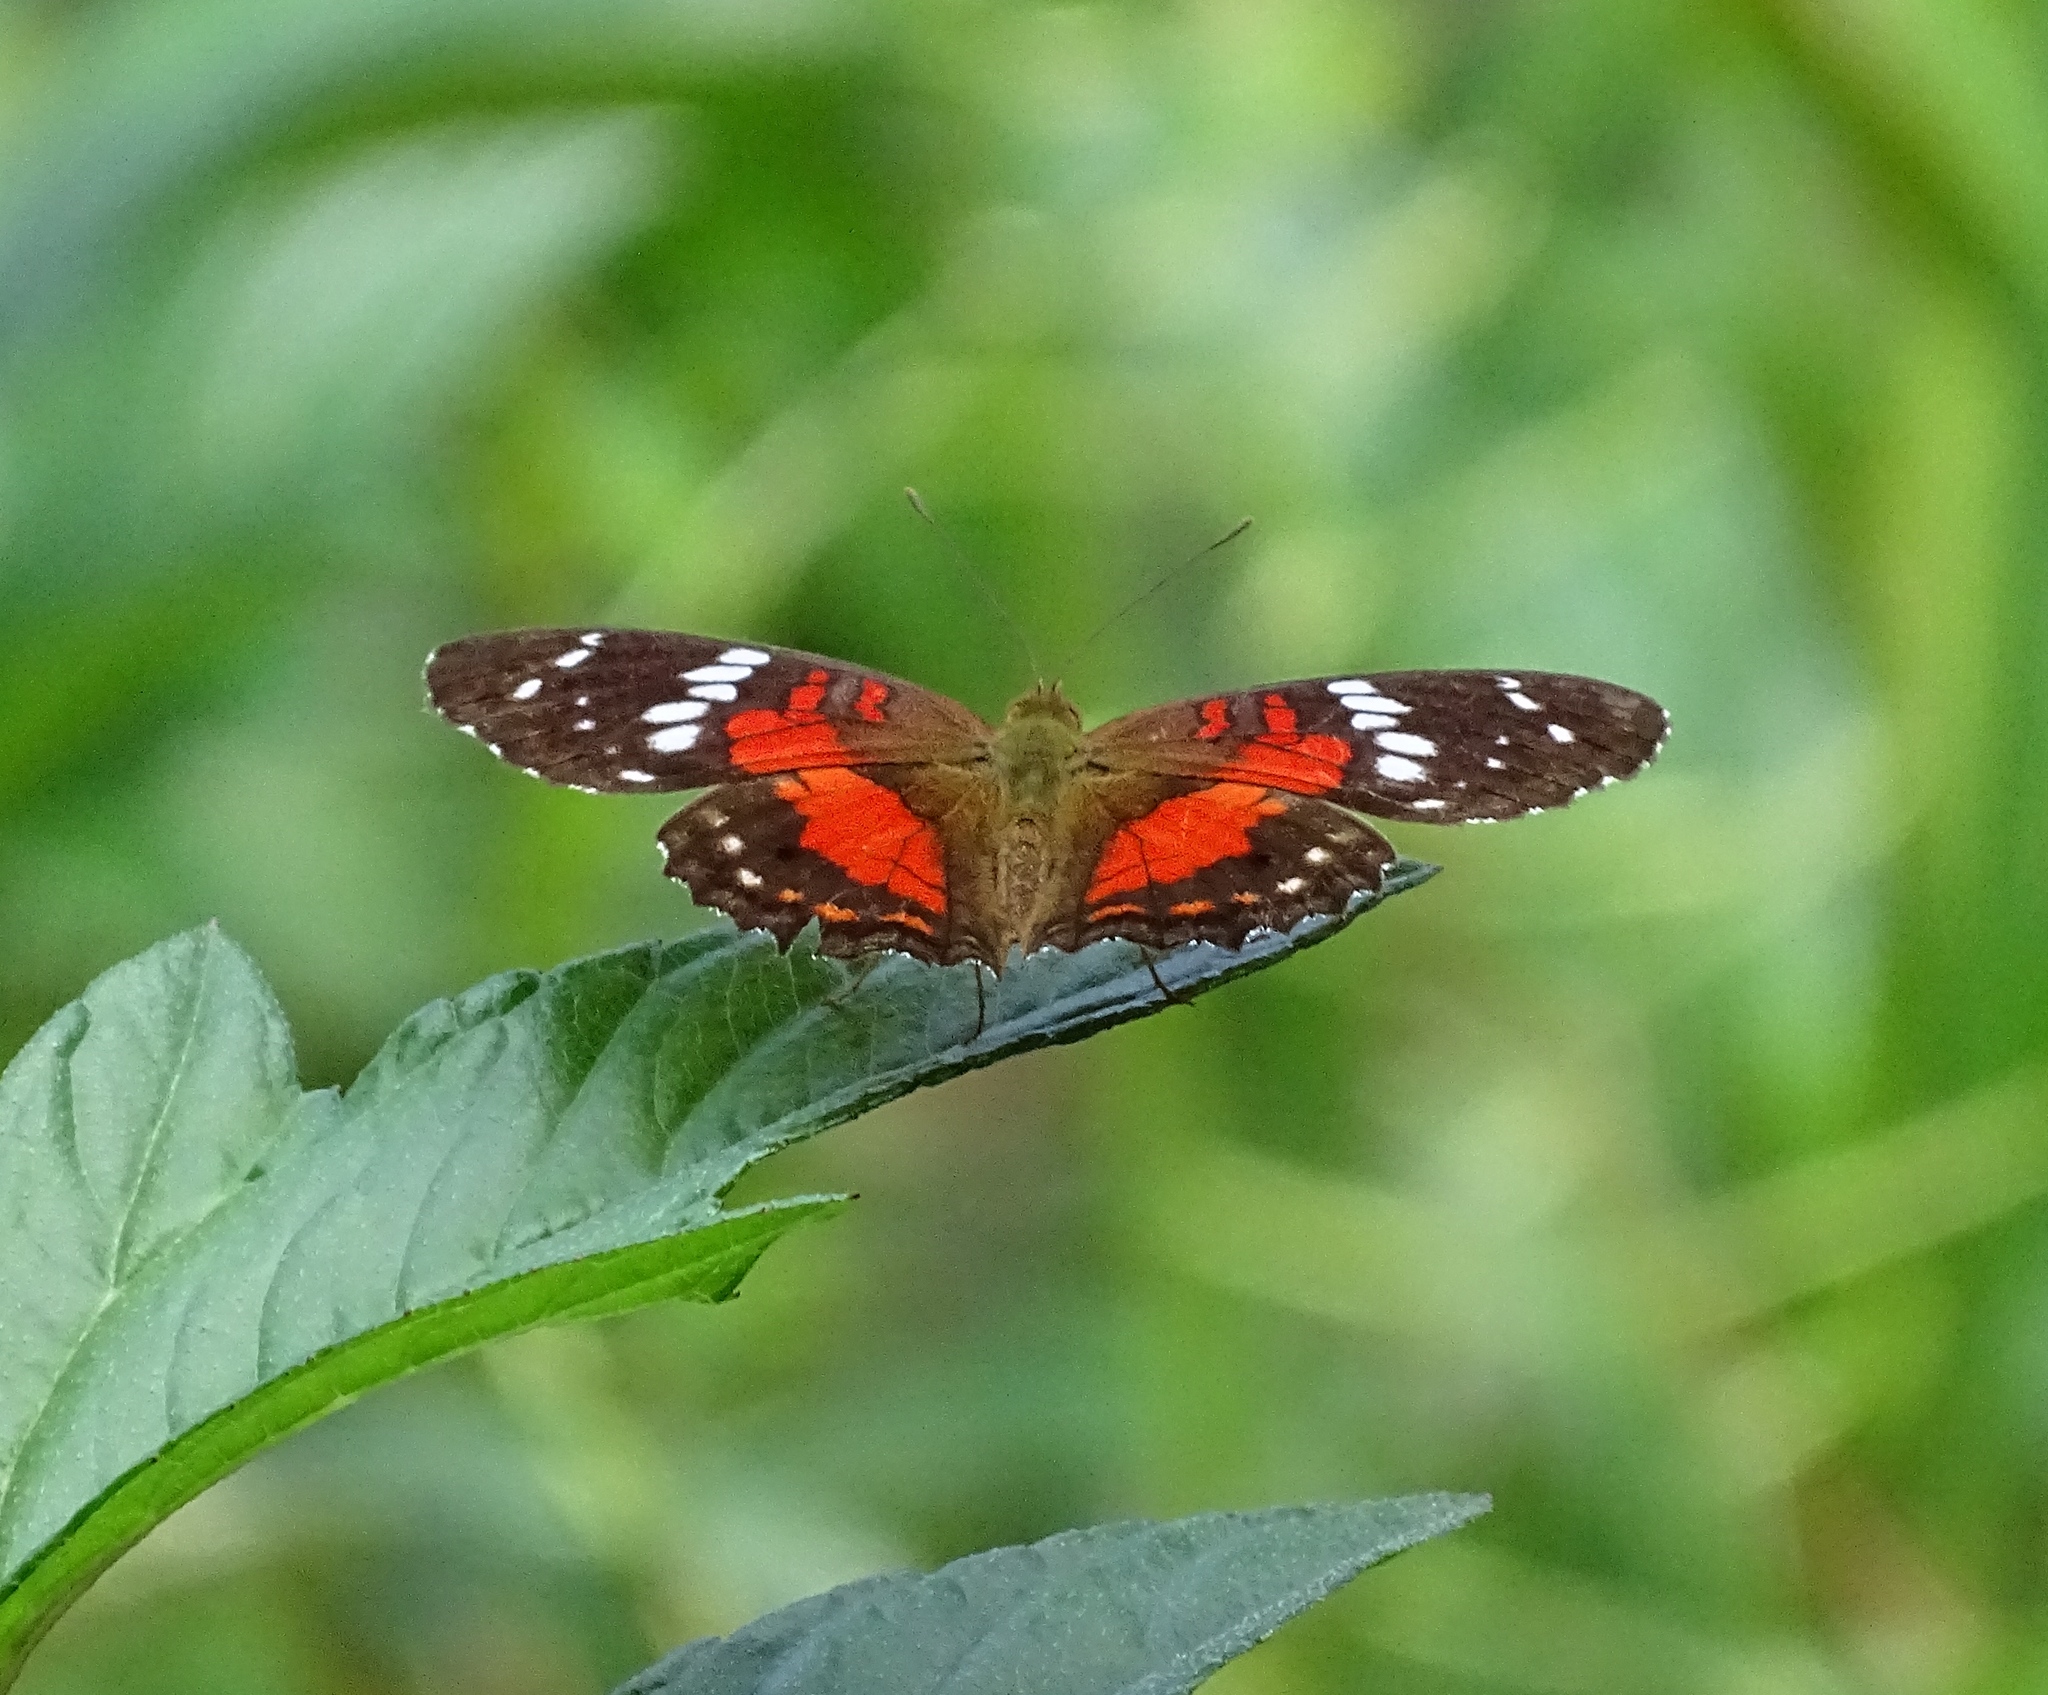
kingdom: Animalia
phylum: Arthropoda
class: Insecta
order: Lepidoptera
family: Nymphalidae
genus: Anartia
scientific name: Anartia amathea
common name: Red peacock
